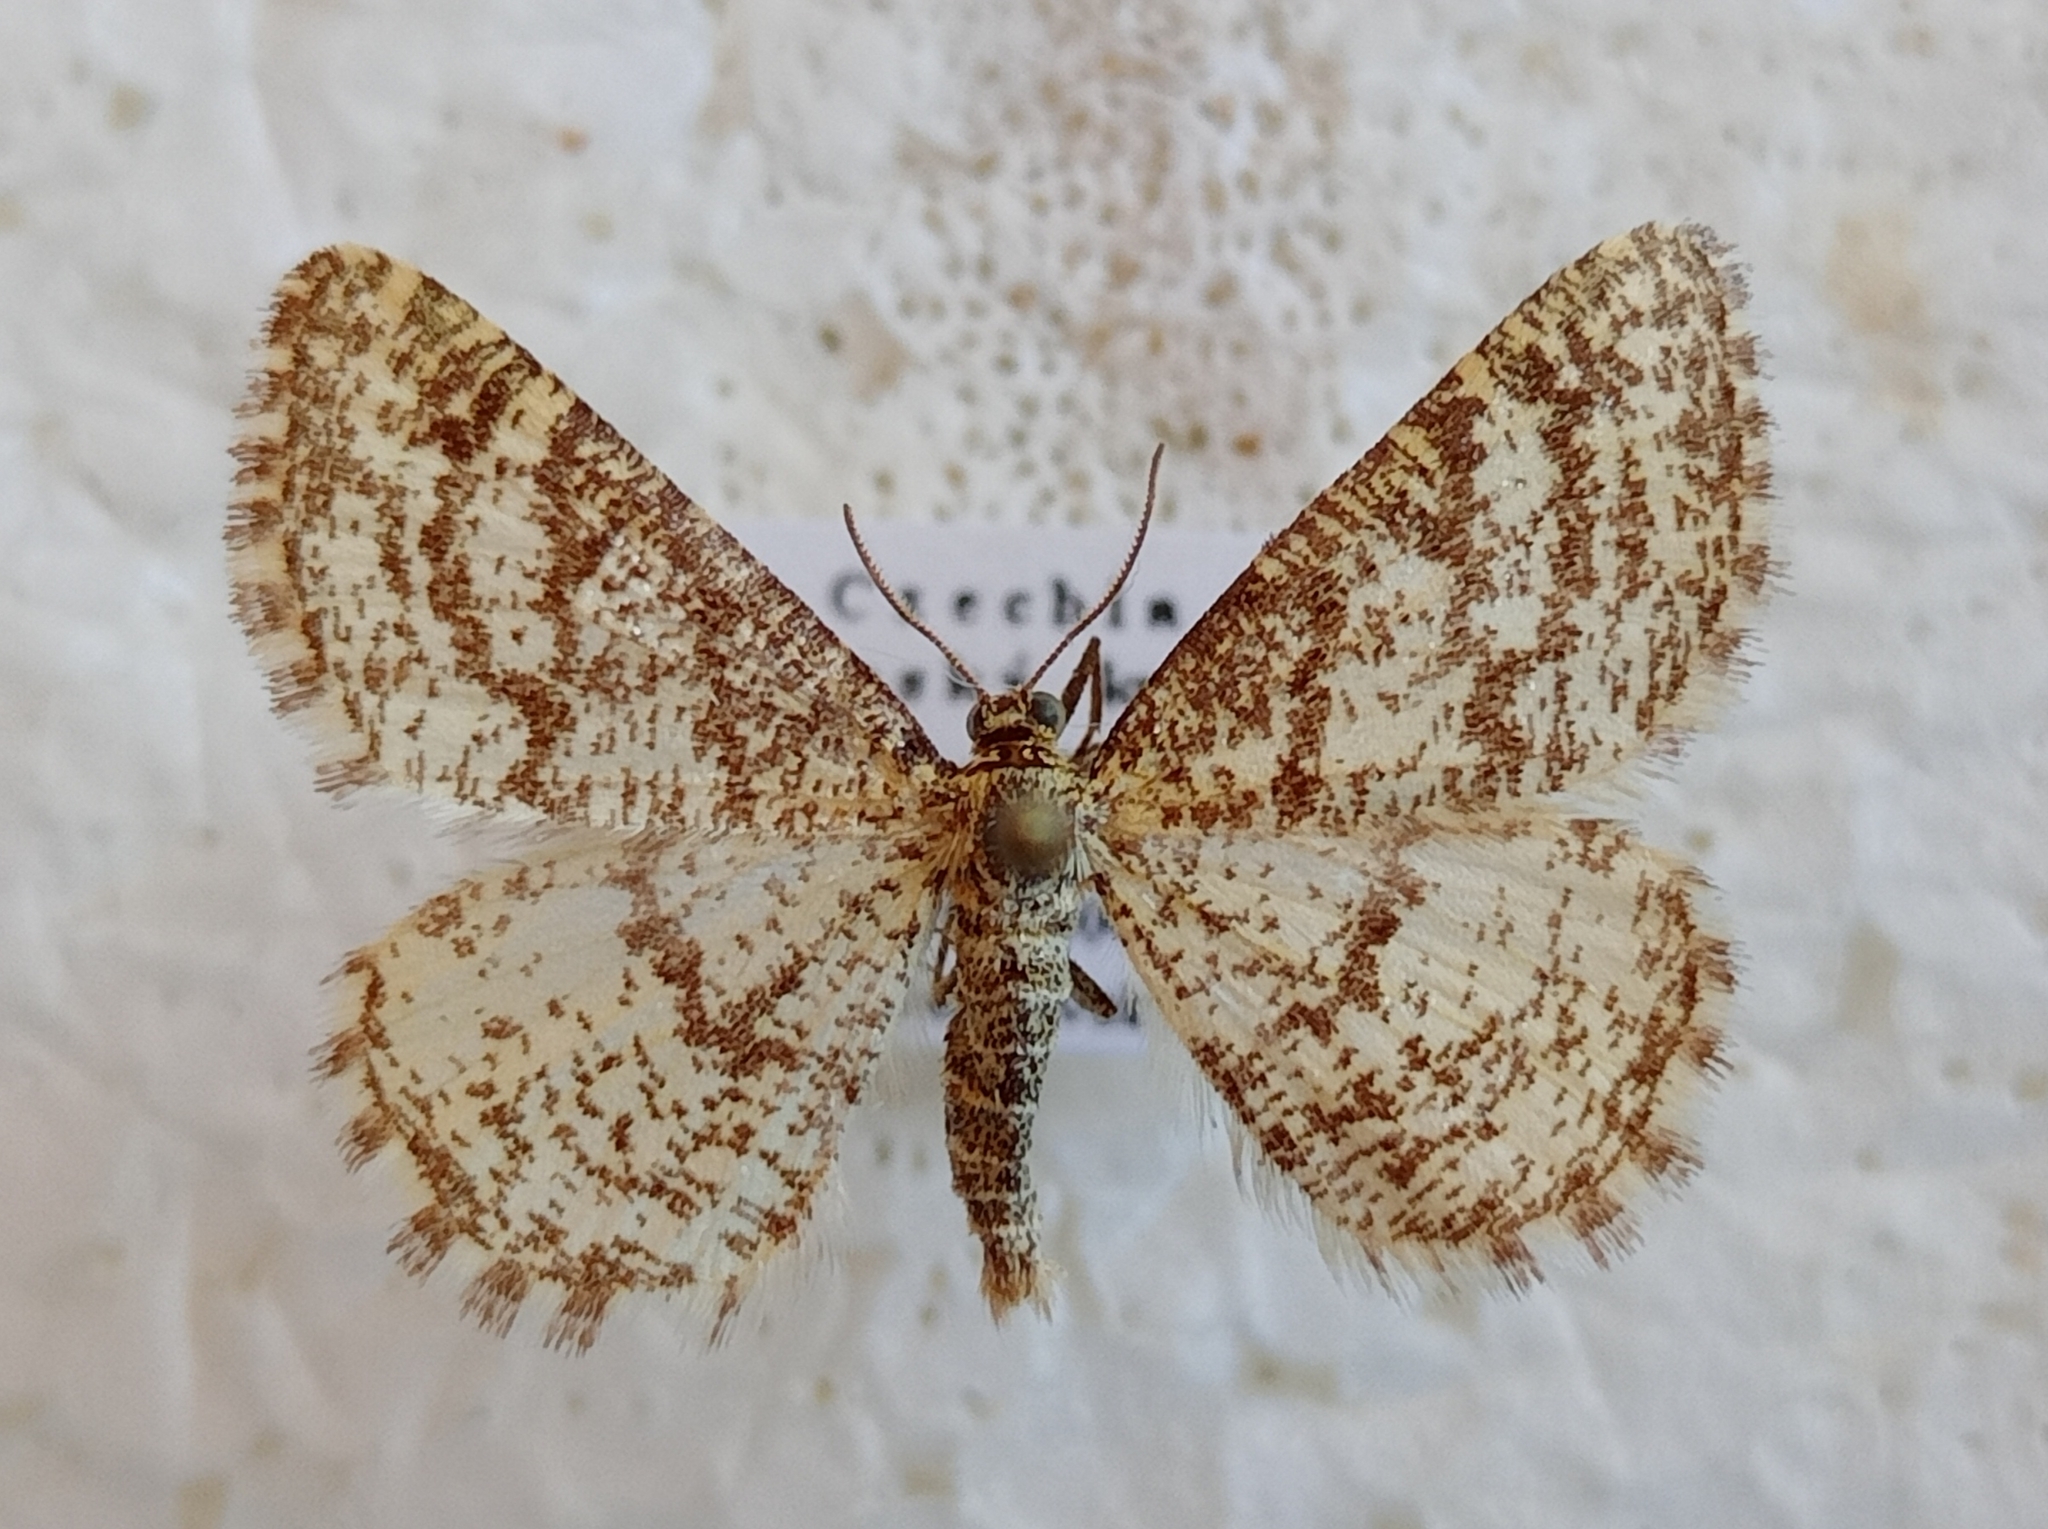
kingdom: Animalia
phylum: Arthropoda
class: Insecta
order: Lepidoptera
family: Geometridae
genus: Heliomata
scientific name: Heliomata glarearia
